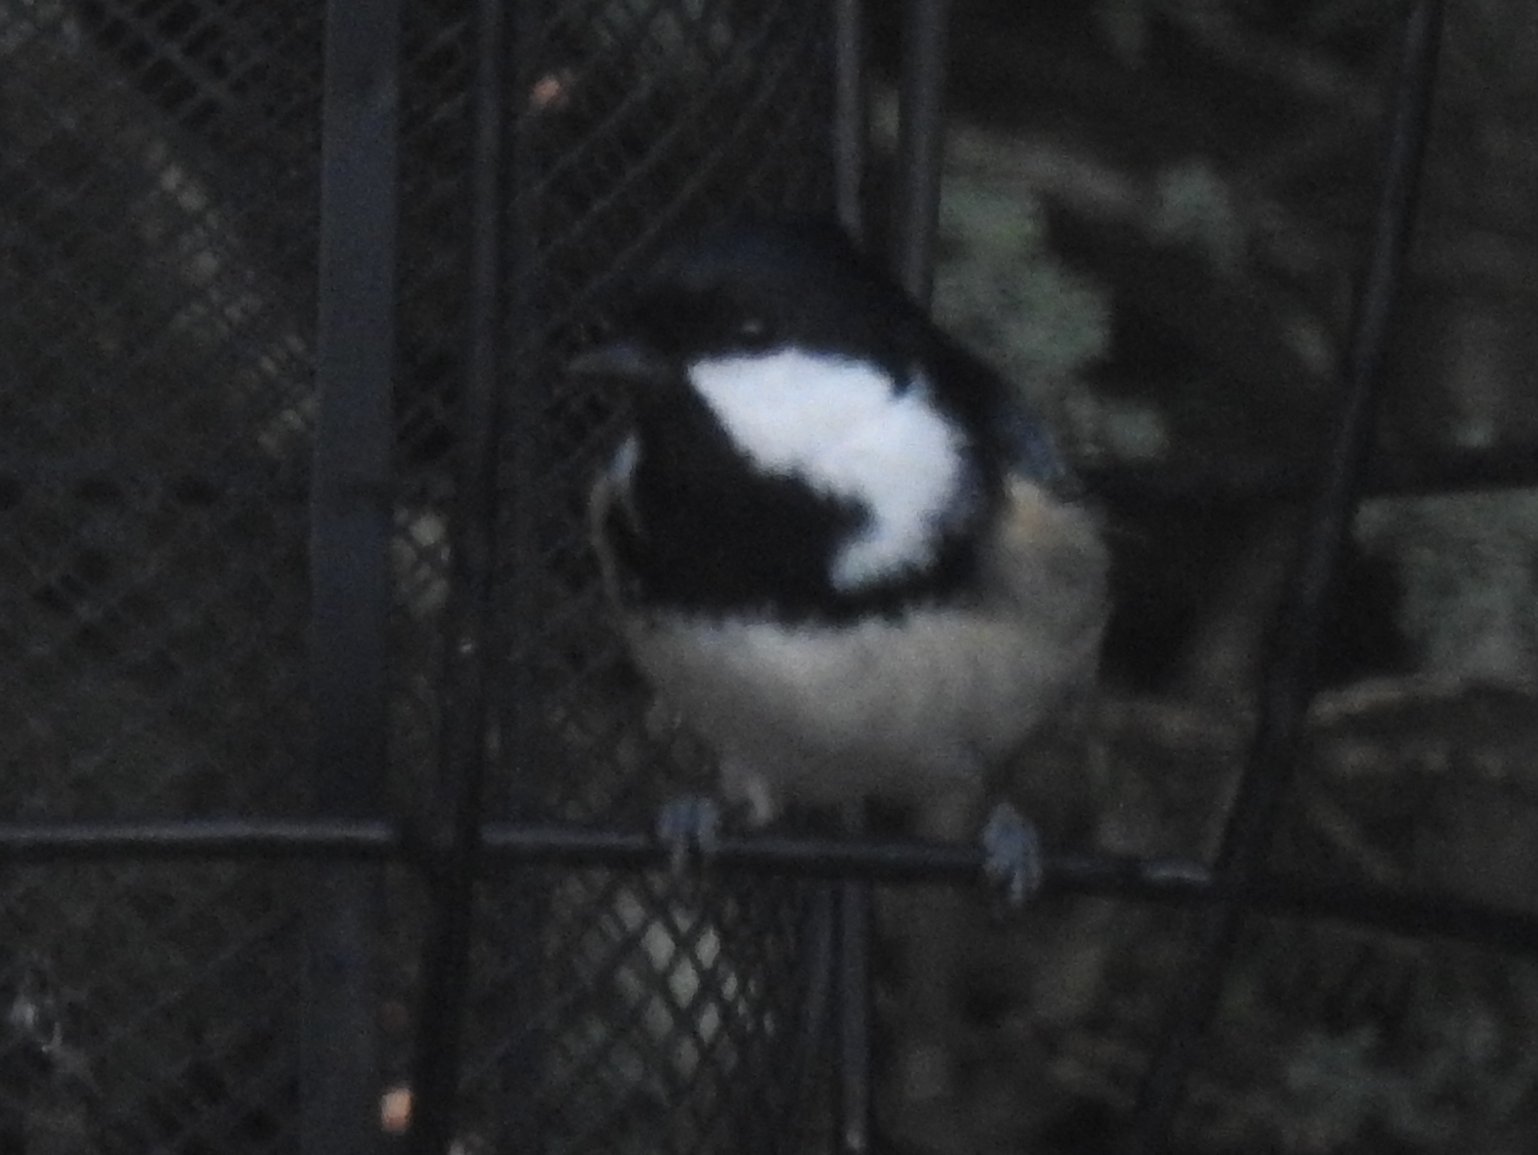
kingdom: Animalia
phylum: Chordata
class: Aves
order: Passeriformes
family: Paridae
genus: Periparus
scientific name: Periparus ater
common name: Coal tit
